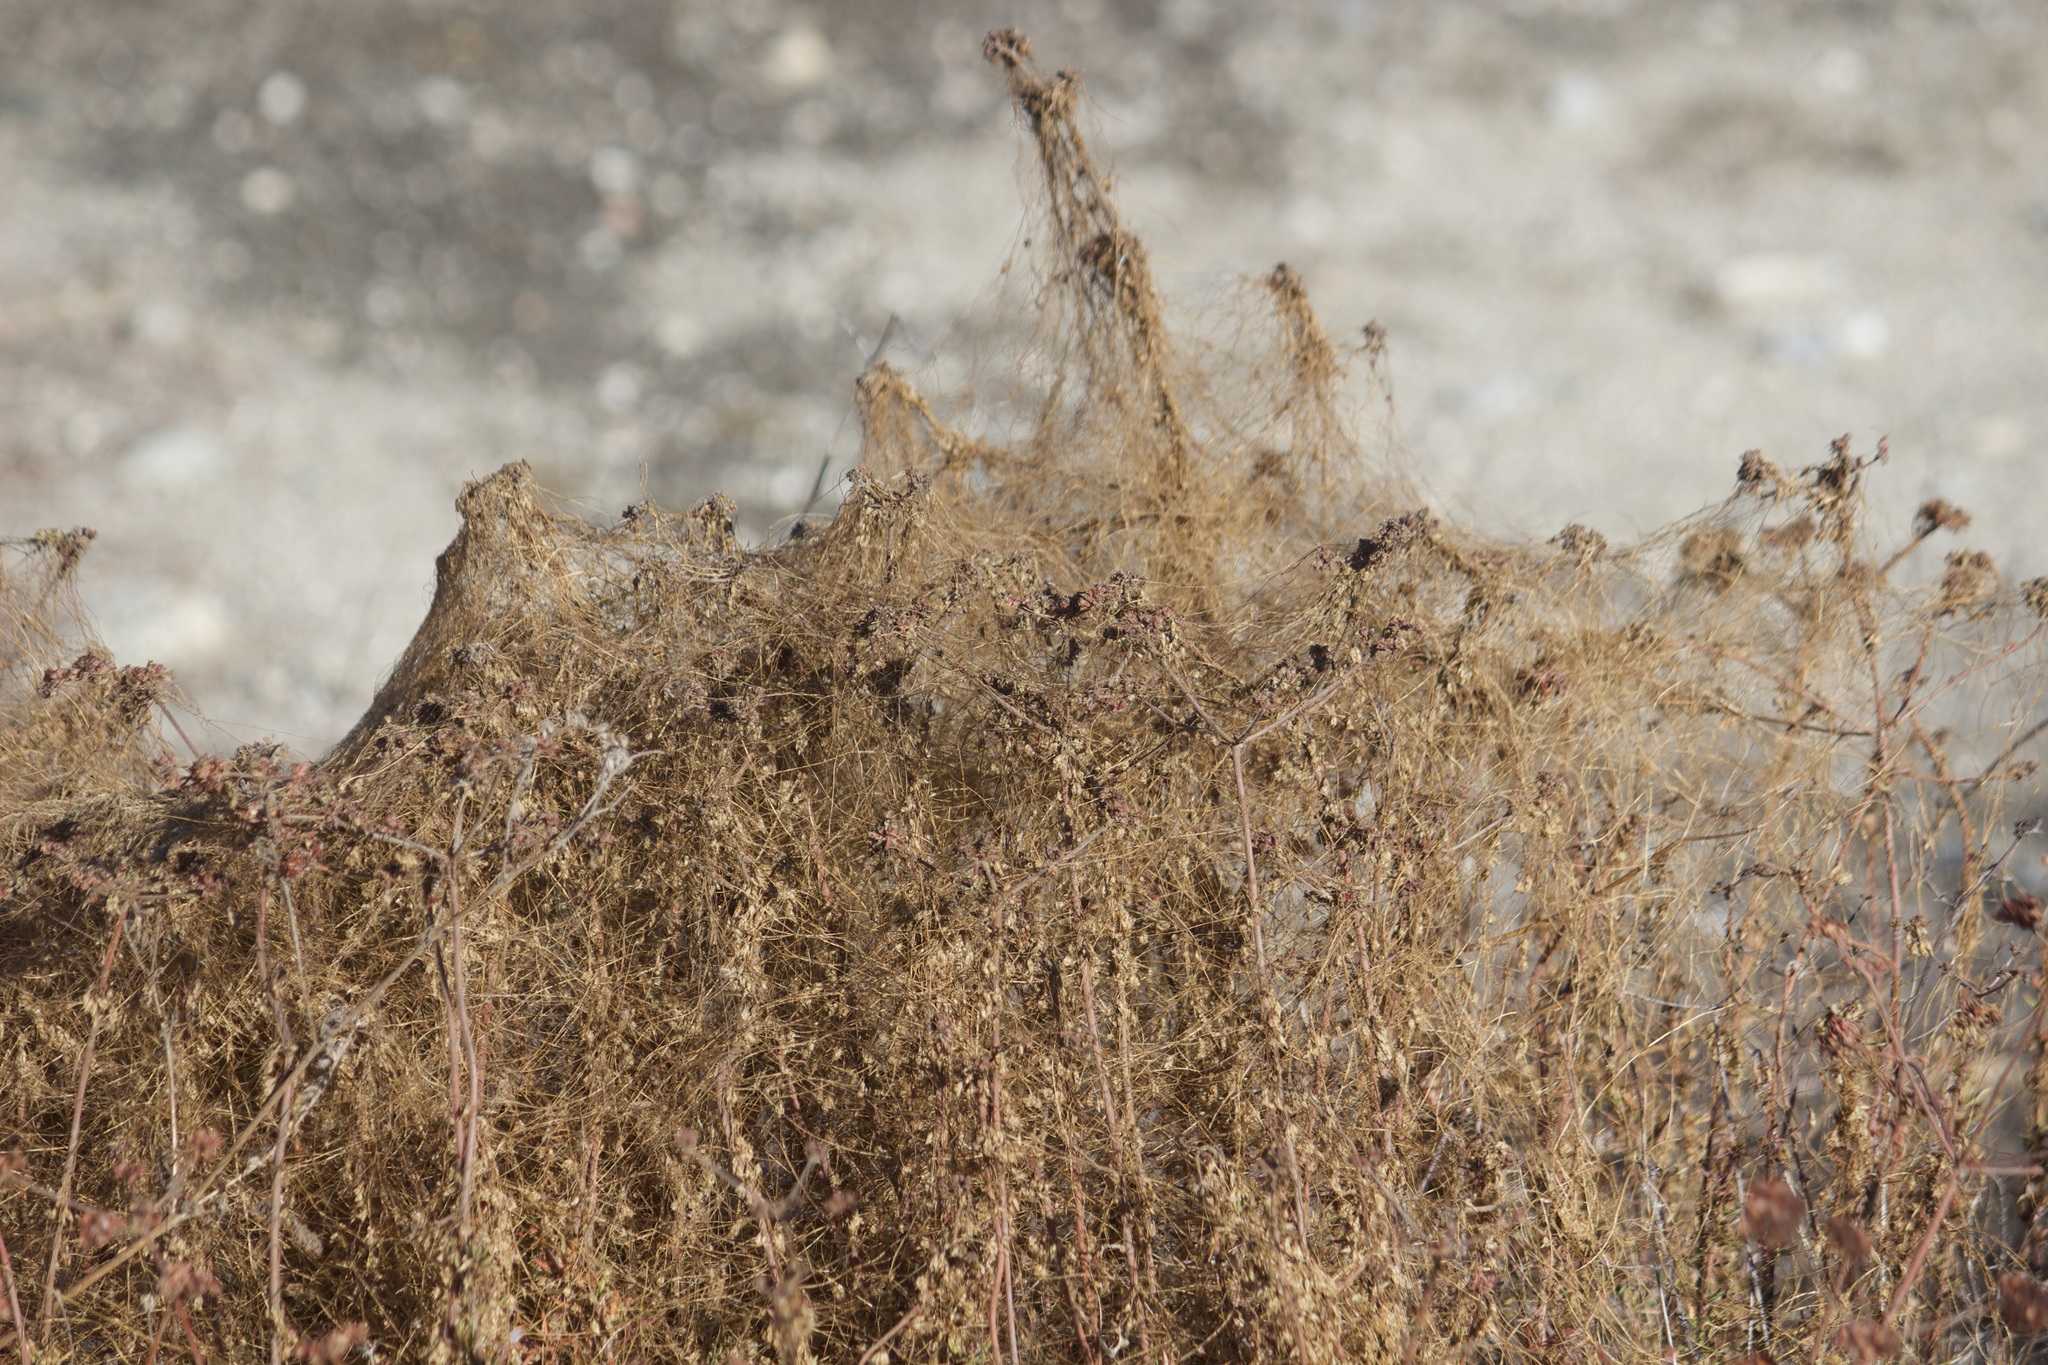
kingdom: Plantae
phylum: Tracheophyta
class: Magnoliopsida
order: Solanales
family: Convolvulaceae
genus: Cuscuta
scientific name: Cuscuta californica
